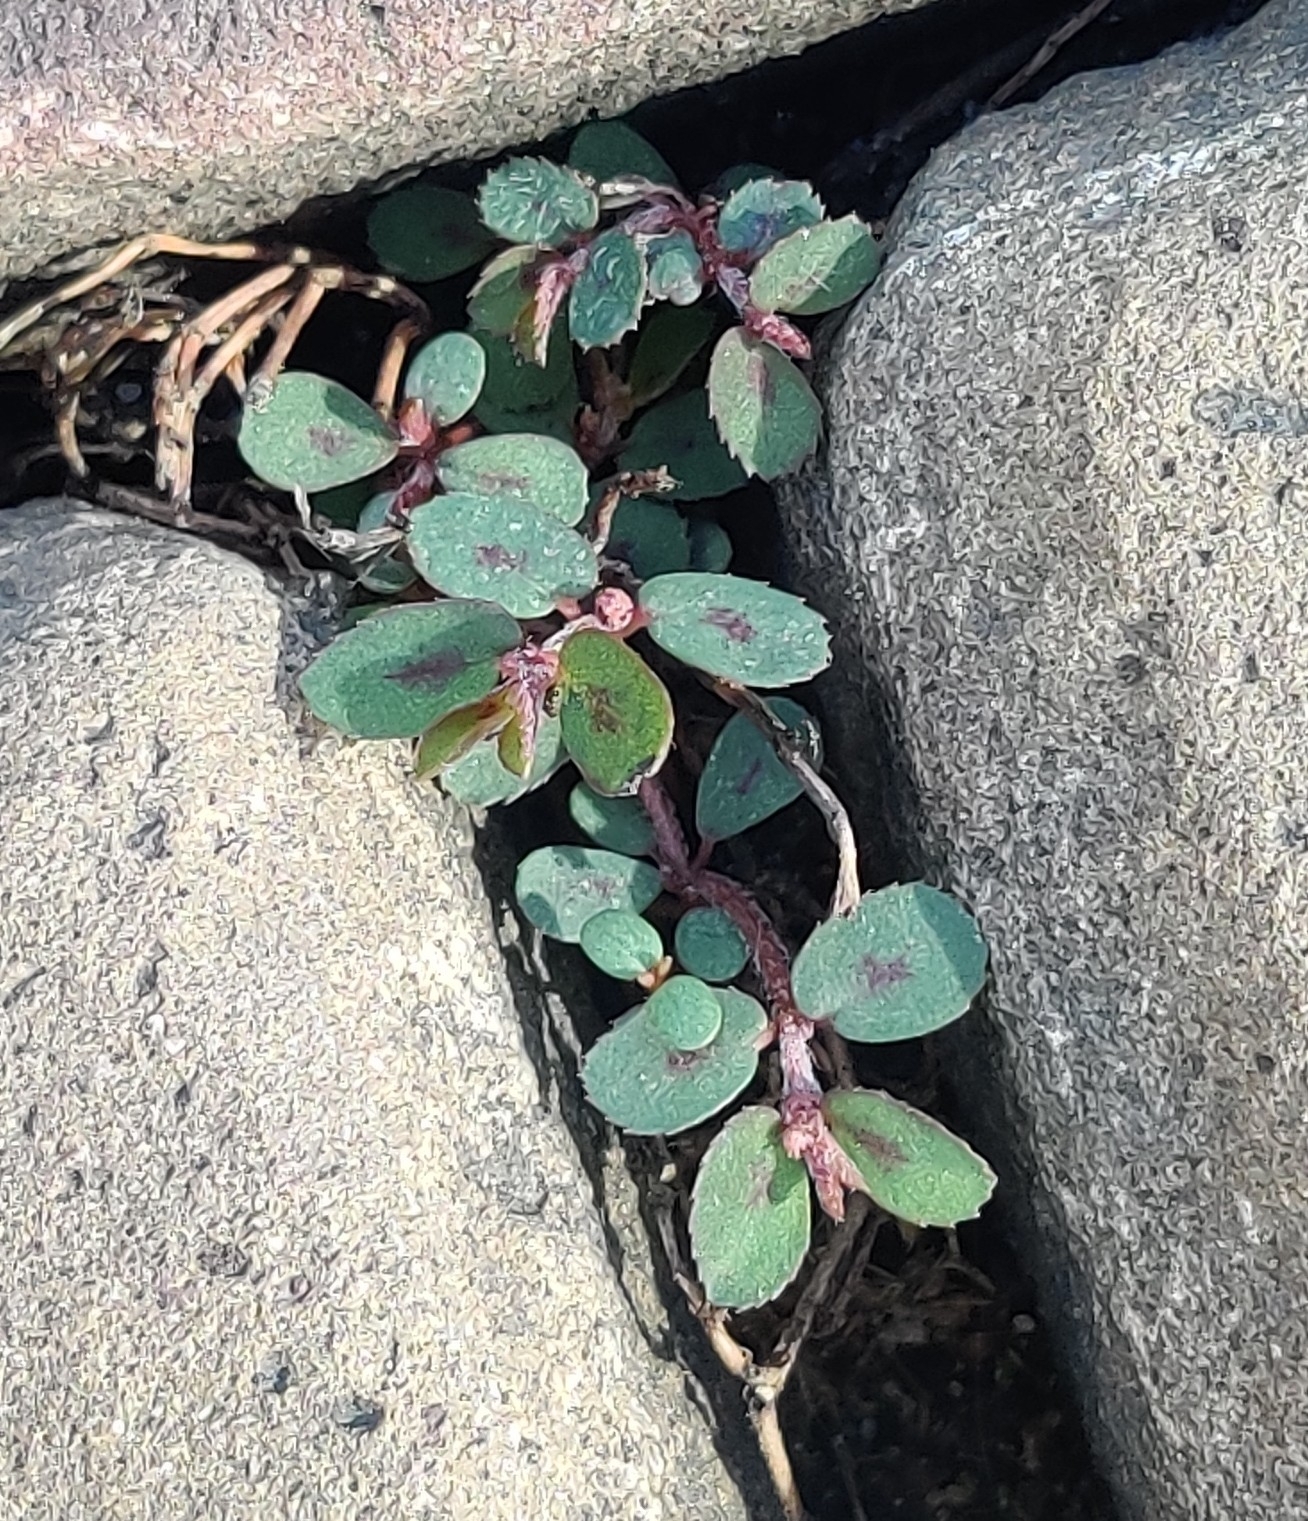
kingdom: Plantae
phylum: Tracheophyta
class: Magnoliopsida
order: Malpighiales
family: Euphorbiaceae
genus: Euphorbia
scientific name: Euphorbia maculata
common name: Spotted spurge
